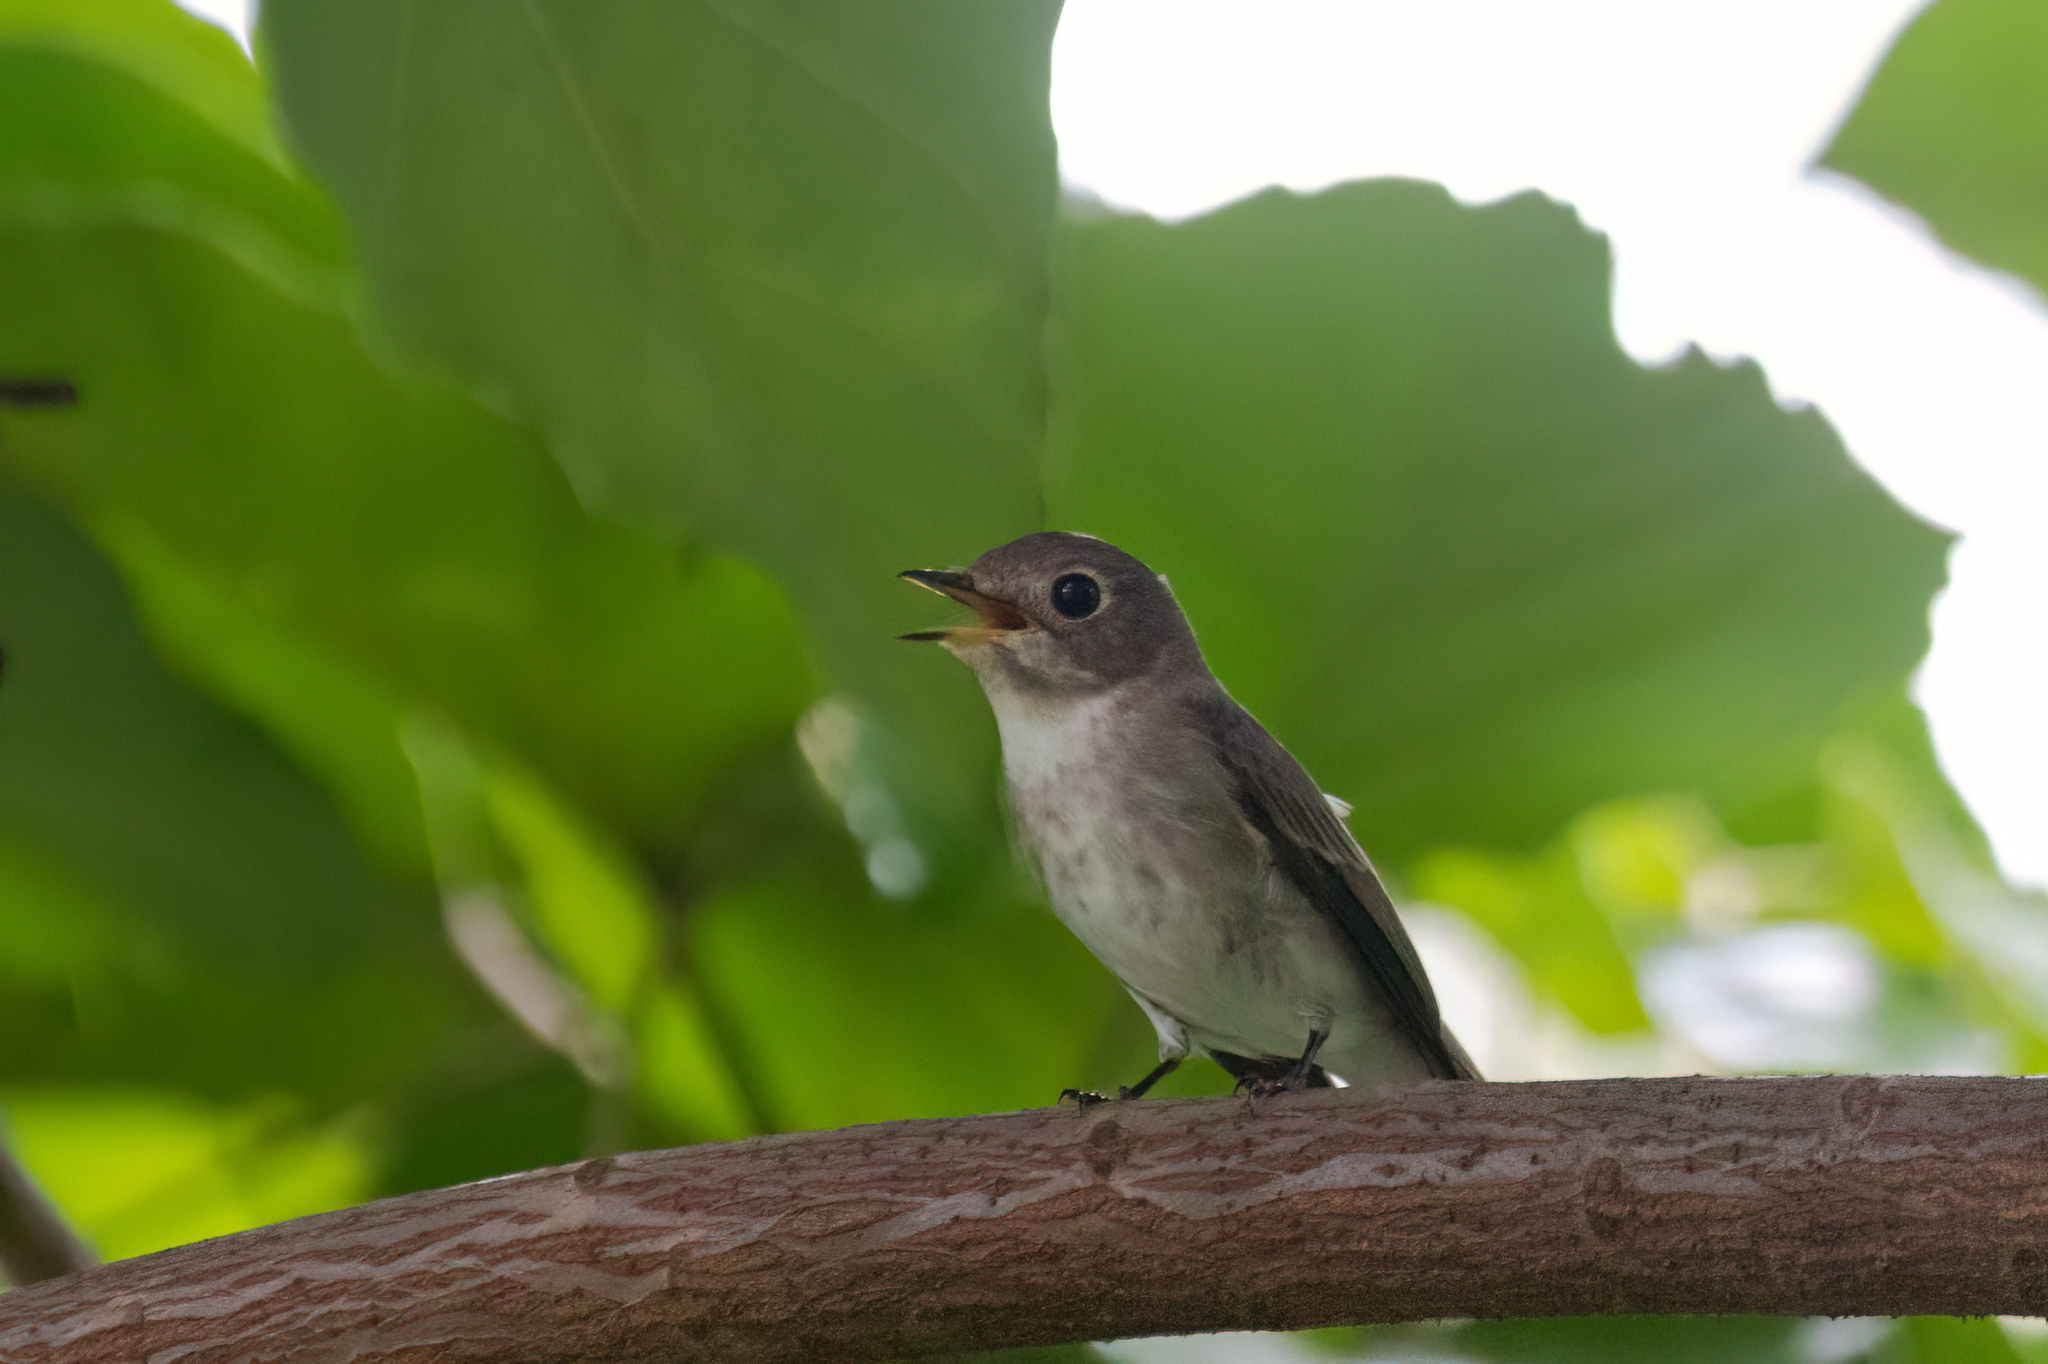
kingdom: Animalia
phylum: Chordata
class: Aves
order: Passeriformes
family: Muscicapidae
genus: Muscicapa
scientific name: Muscicapa latirostris
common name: Asian brown flycatcher
